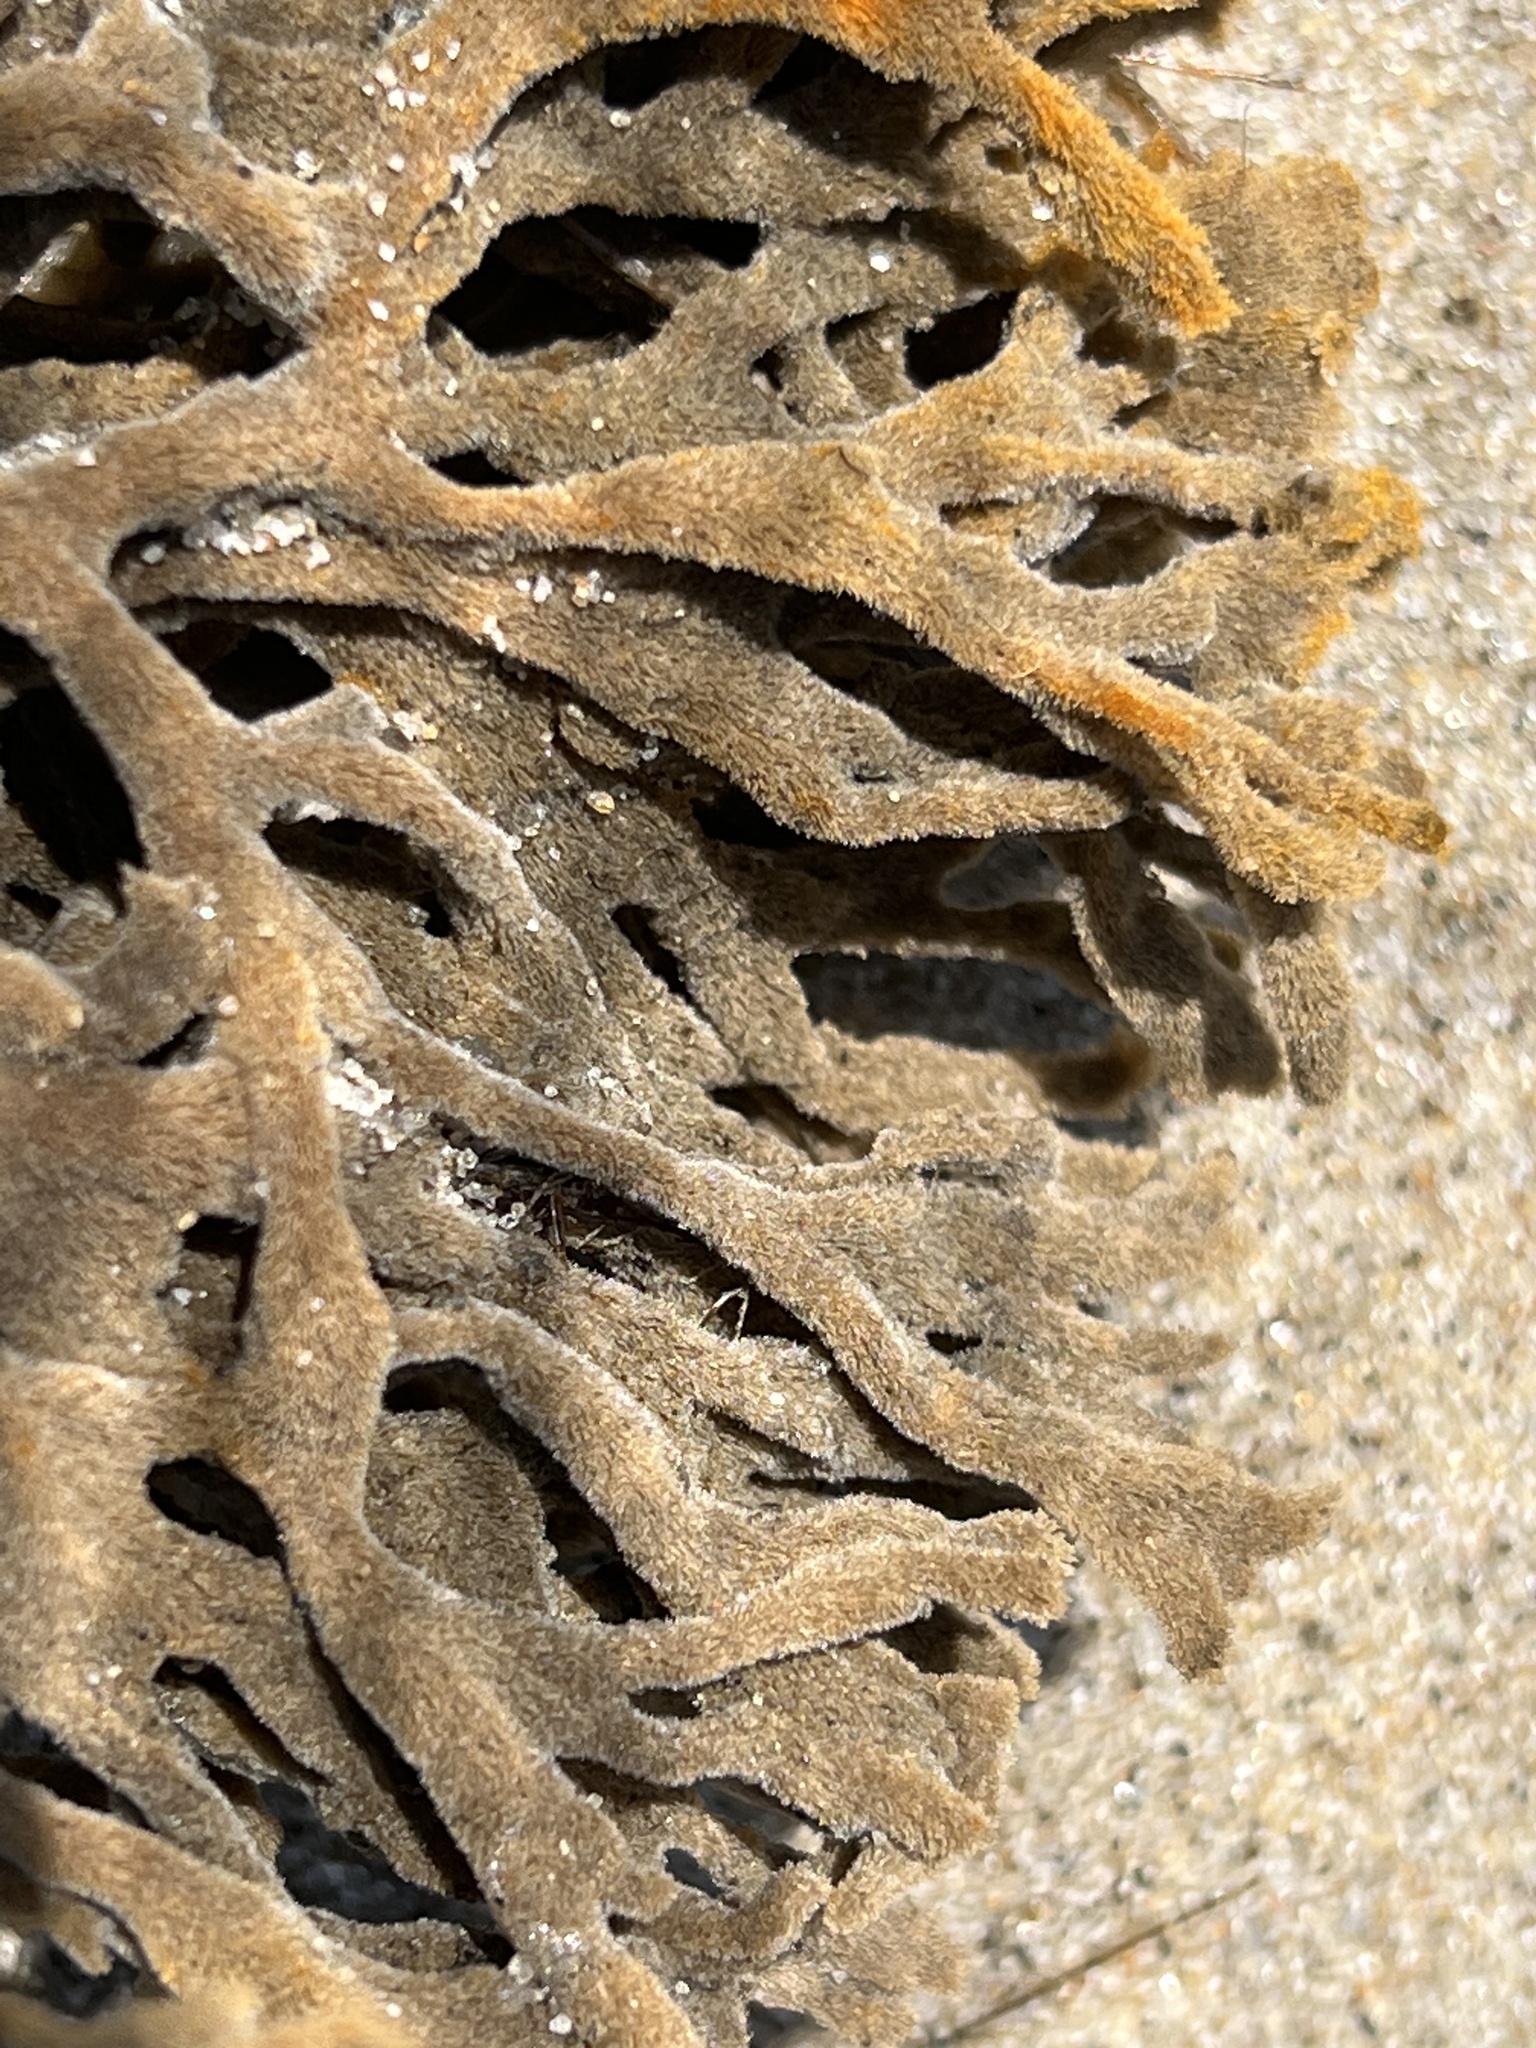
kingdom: Animalia
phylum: Porifera
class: Demospongiae
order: Poecilosclerida
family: Microcionidae
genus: Clathria
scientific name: Clathria prolifera
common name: Red beard sponge
